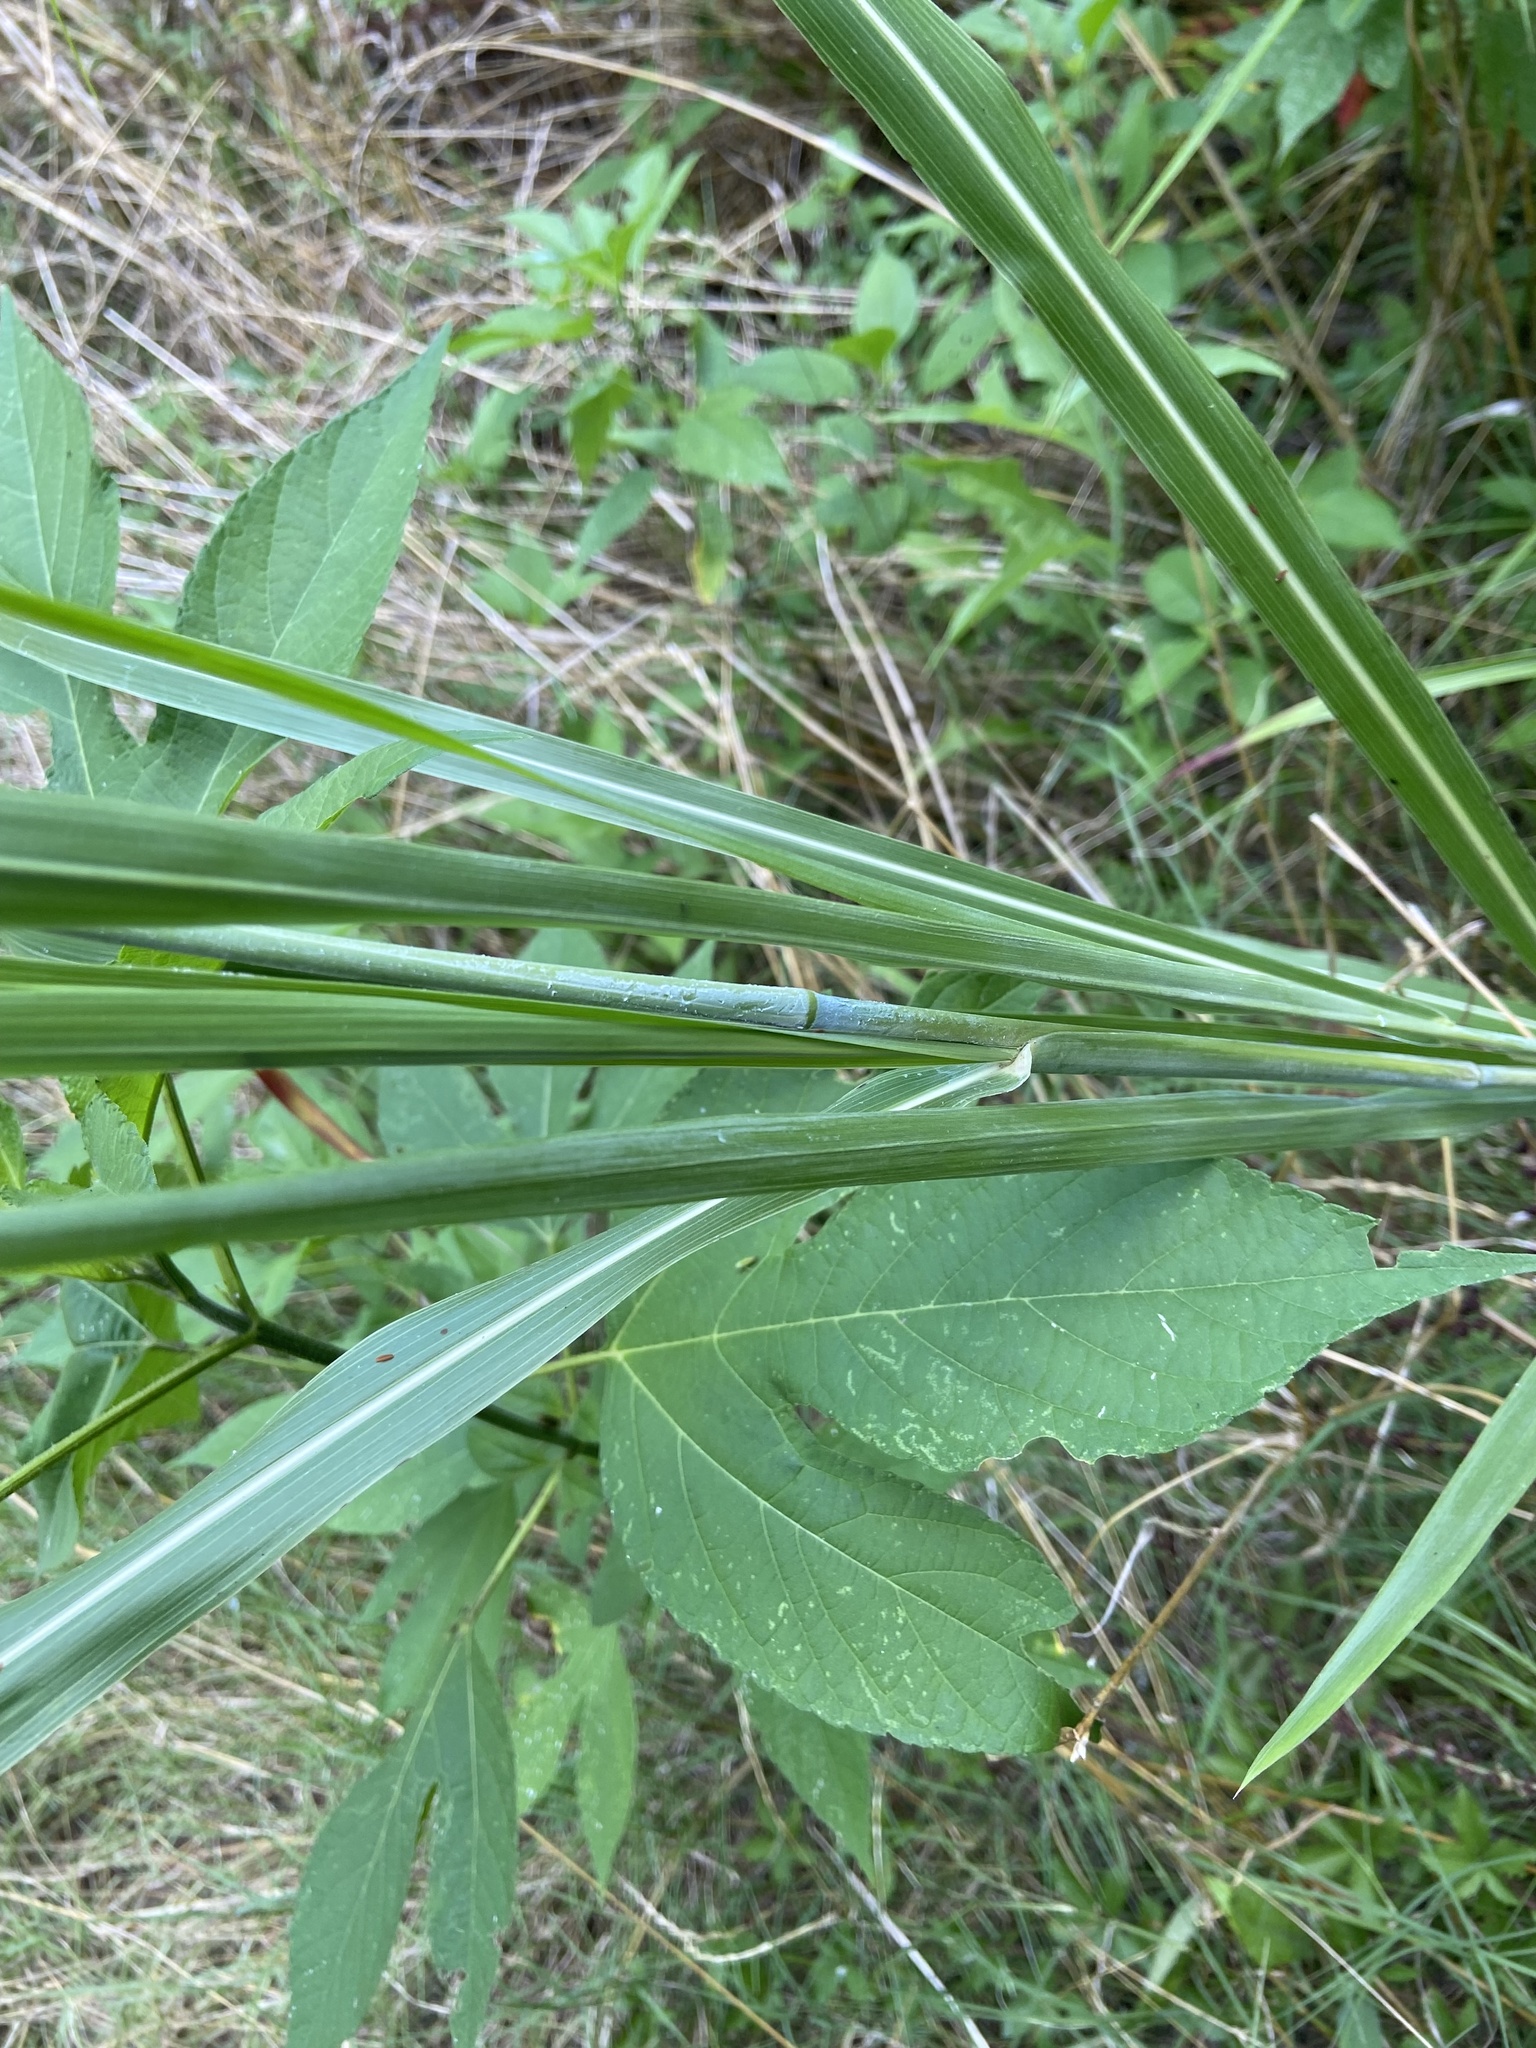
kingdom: Plantae
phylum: Tracheophyta
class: Liliopsida
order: Poales
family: Poaceae
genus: Sorghum
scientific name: Sorghum halepense
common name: Johnson-grass
